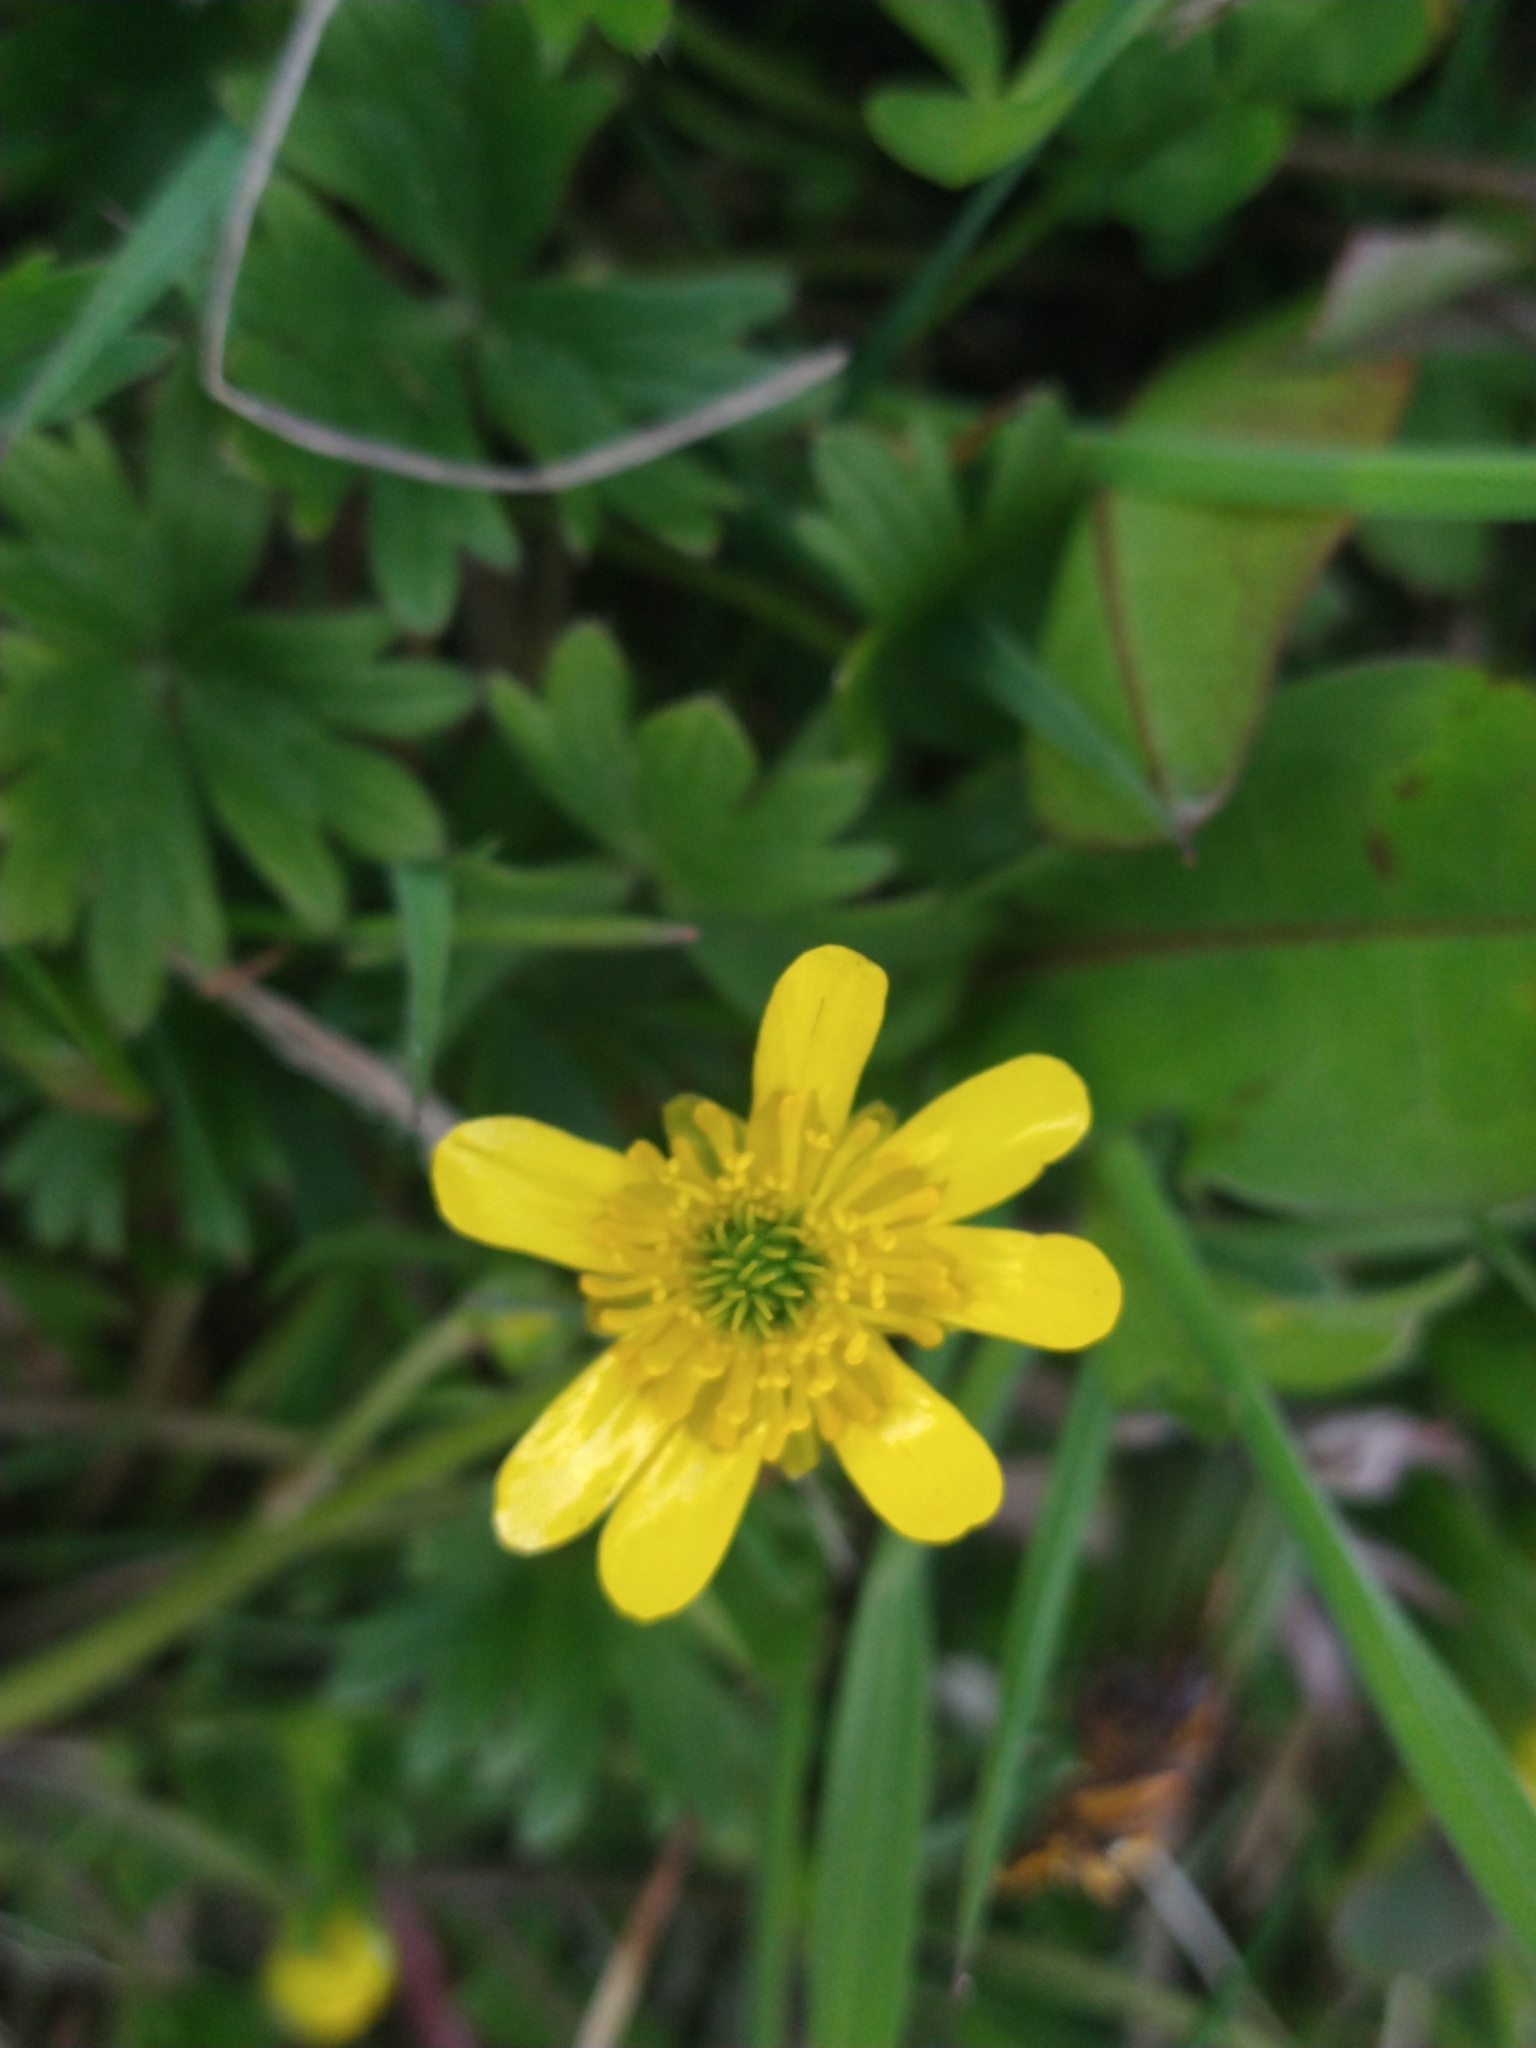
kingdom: Plantae
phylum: Tracheophyta
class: Magnoliopsida
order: Ranunculales
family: Ranunculaceae
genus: Ranunculus
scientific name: Ranunculus peduncularis
